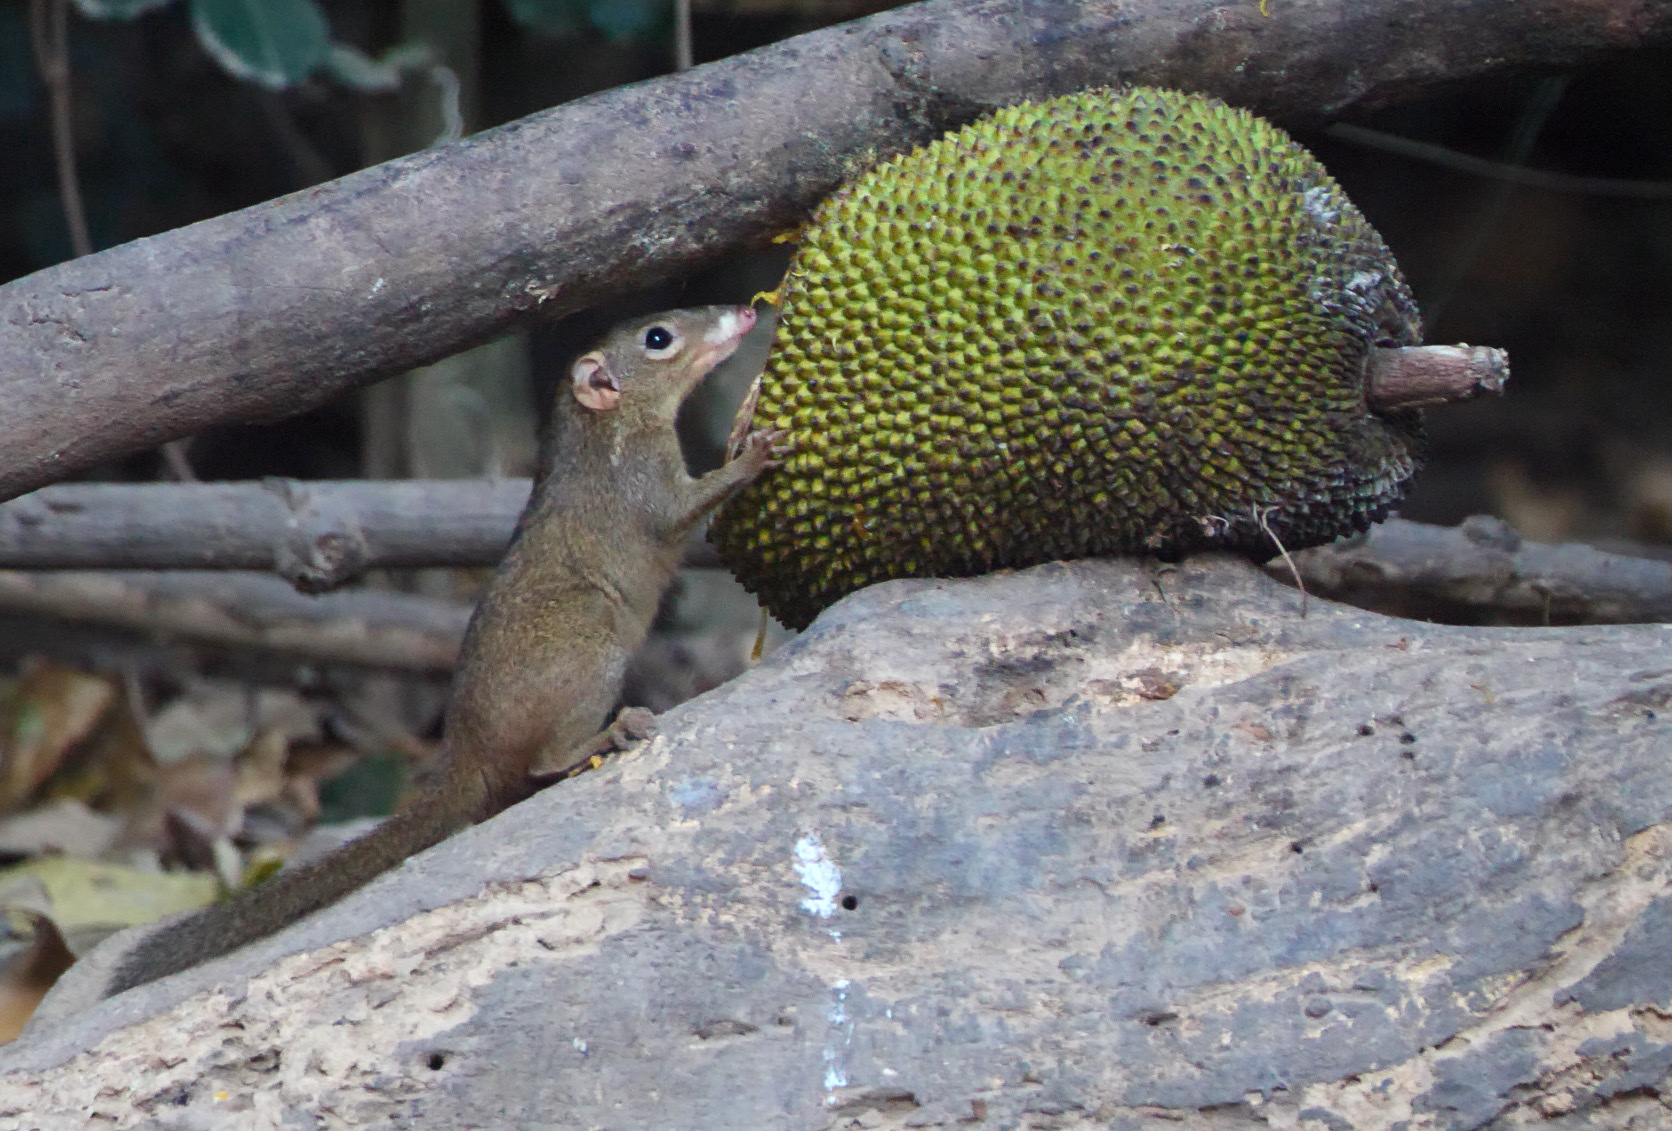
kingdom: Animalia
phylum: Chordata
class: Mammalia
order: Scandentia
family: Tupaiidae
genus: Tupaia
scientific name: Tupaia belangeri
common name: Northern treeshrew
